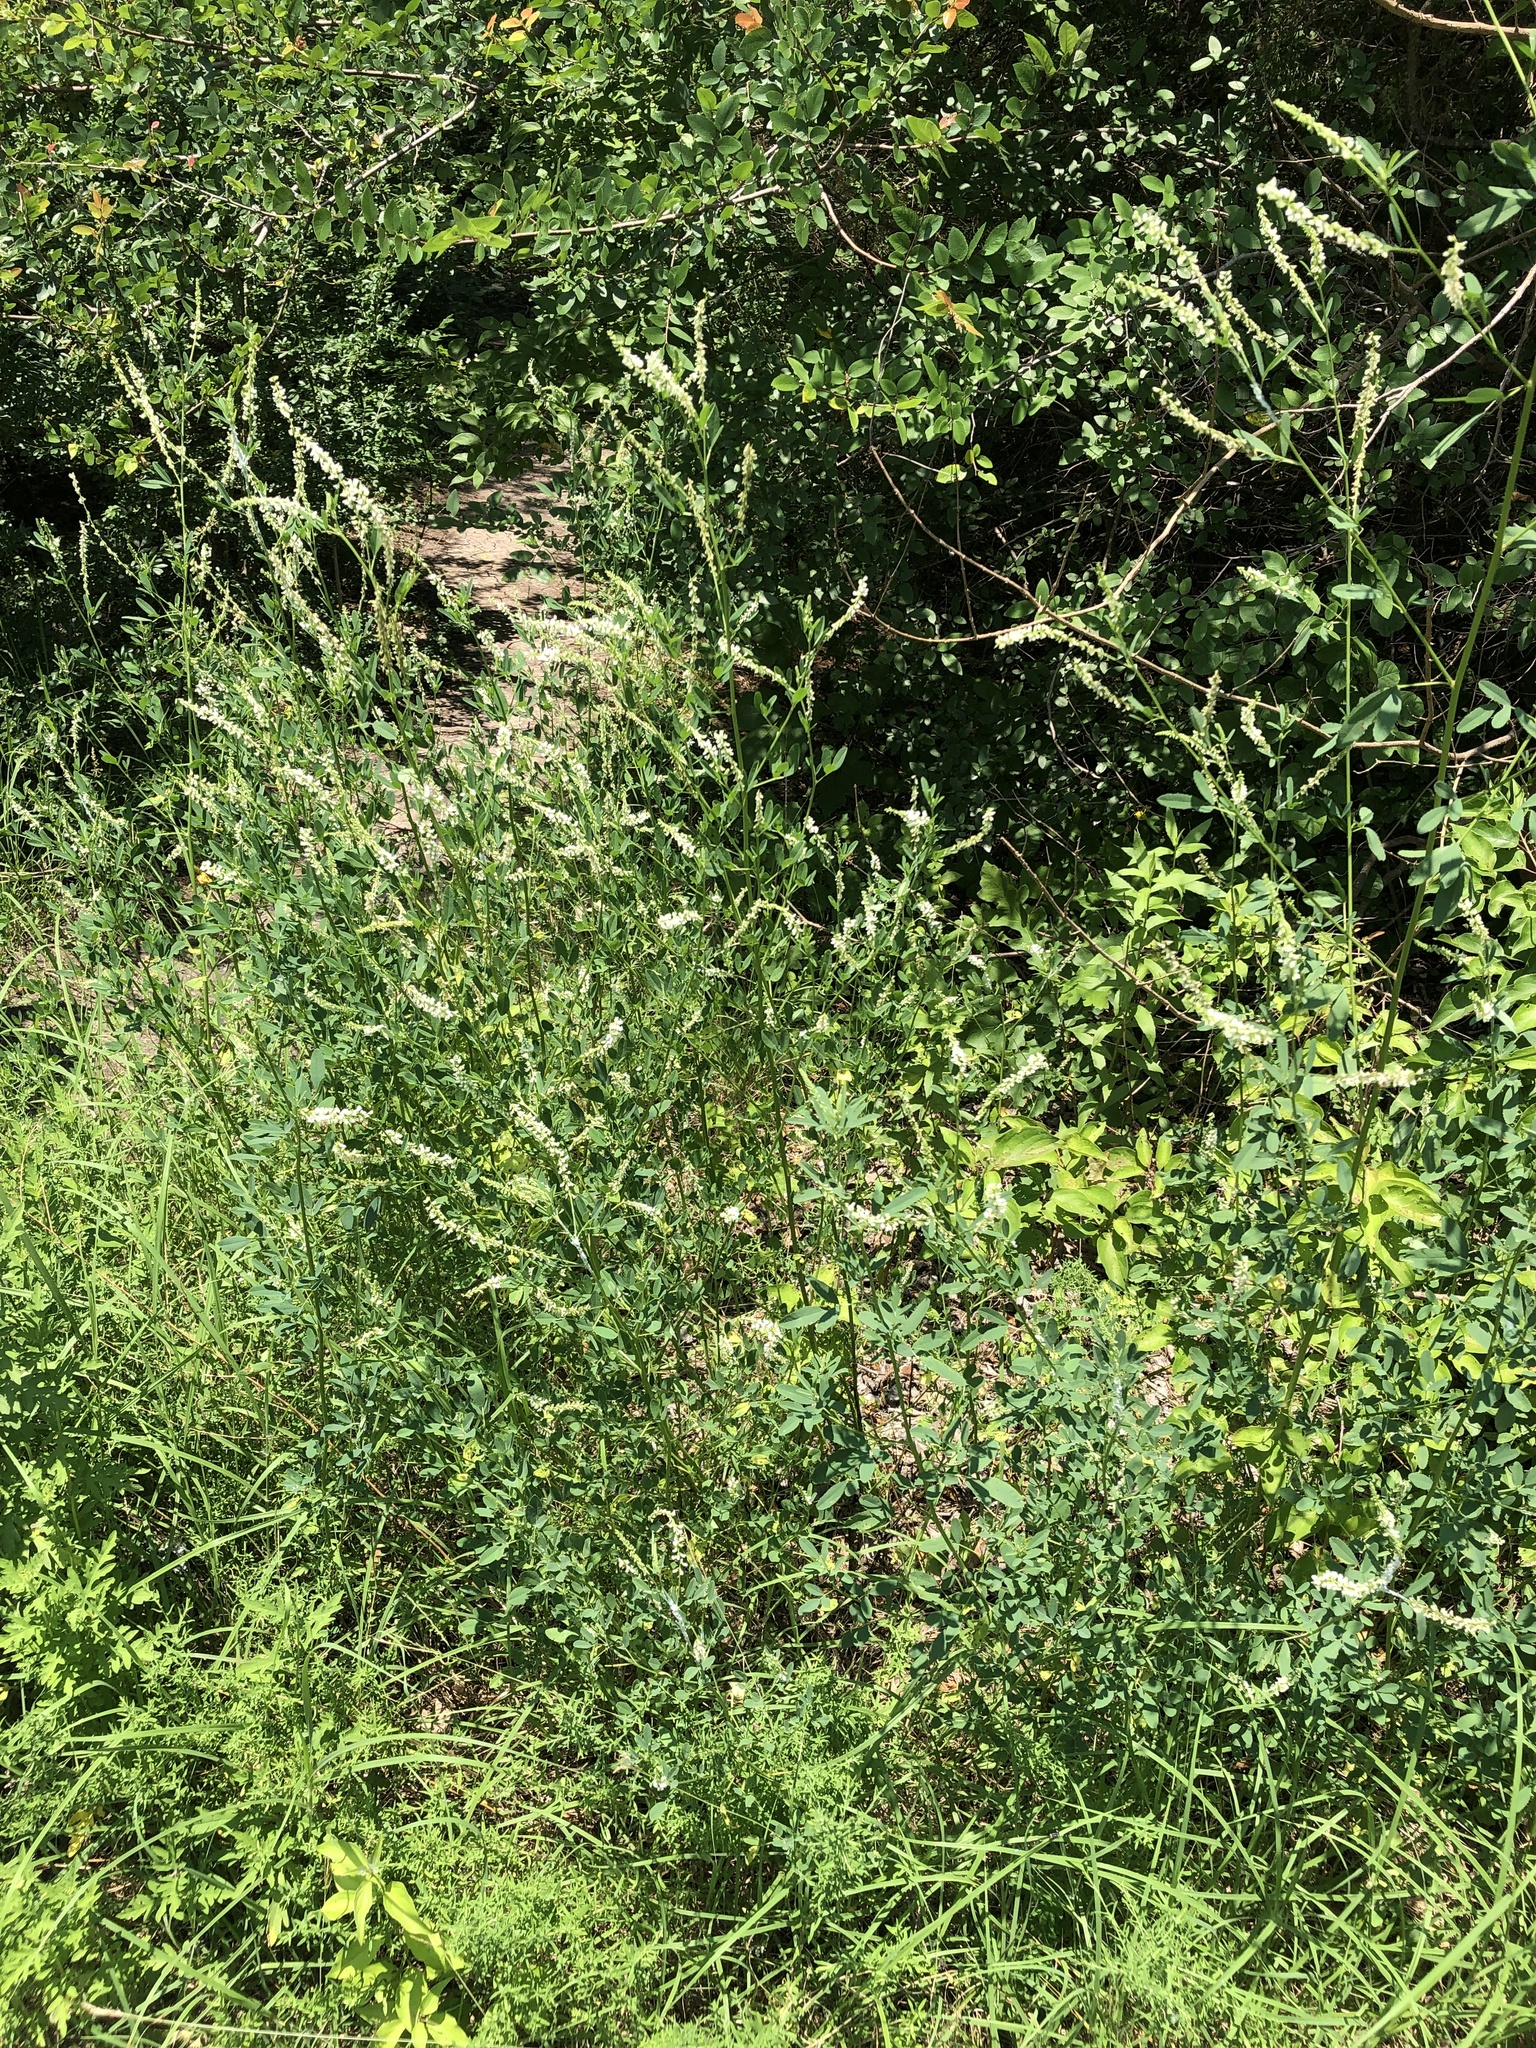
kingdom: Plantae
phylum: Tracheophyta
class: Magnoliopsida
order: Fabales
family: Fabaceae
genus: Melilotus
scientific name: Melilotus albus
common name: White melilot
